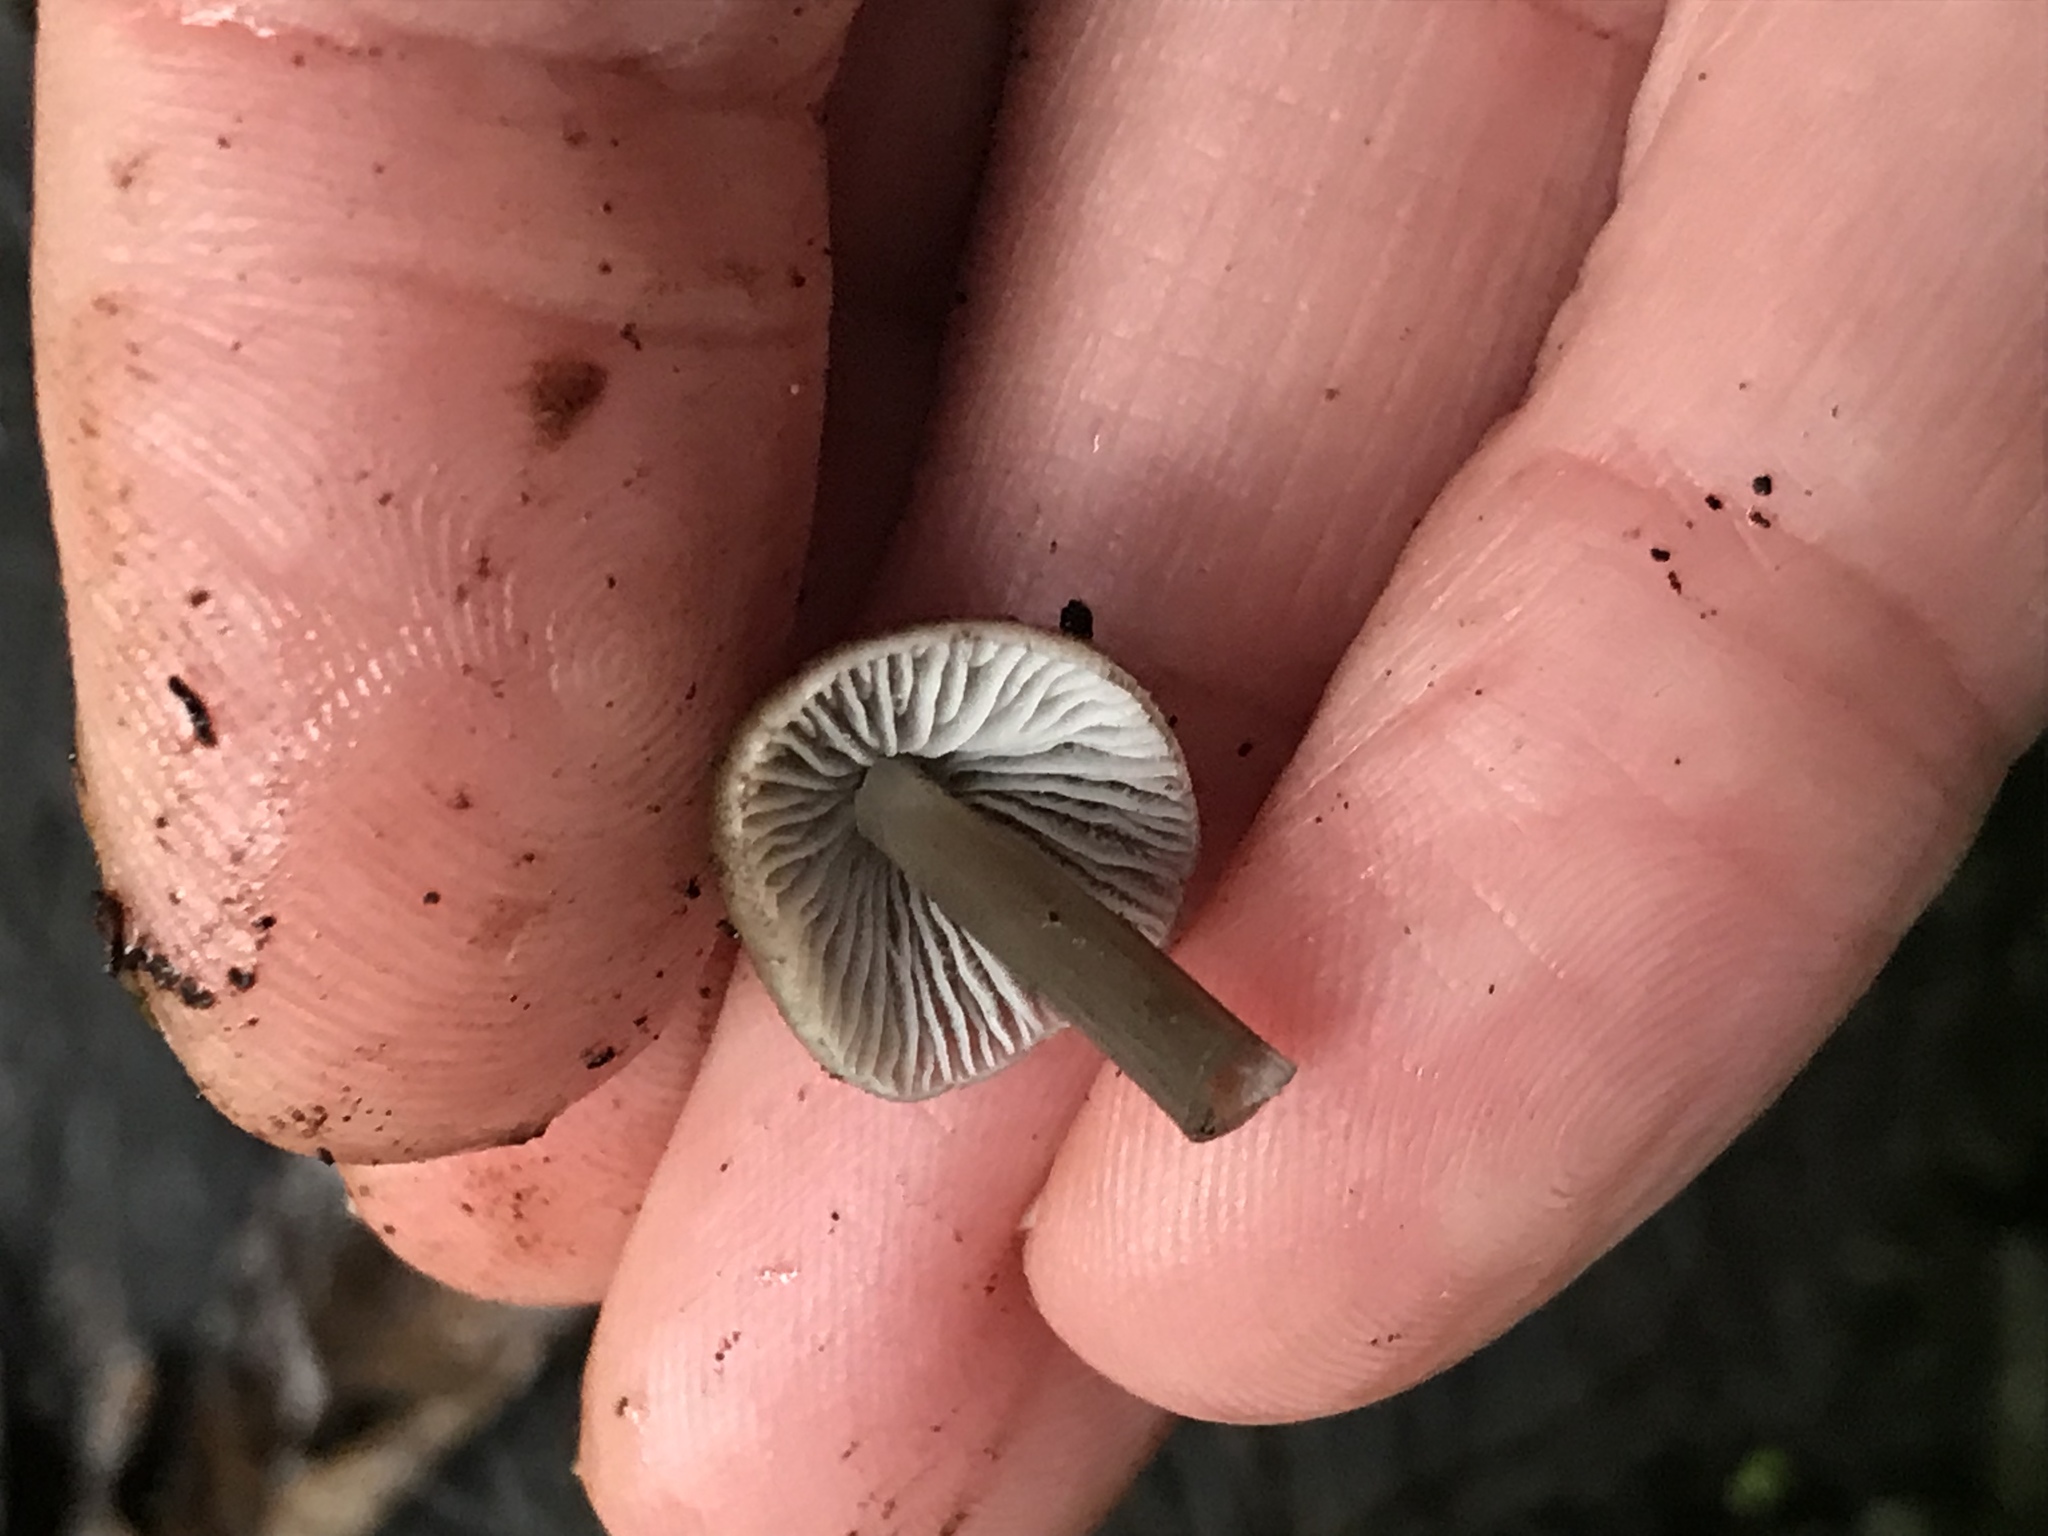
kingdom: Fungi
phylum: Basidiomycota
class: Agaricomycetes
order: Agaricales
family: Mycenaceae
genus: Mycena
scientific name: Mycena maculata
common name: Stained bonnet
